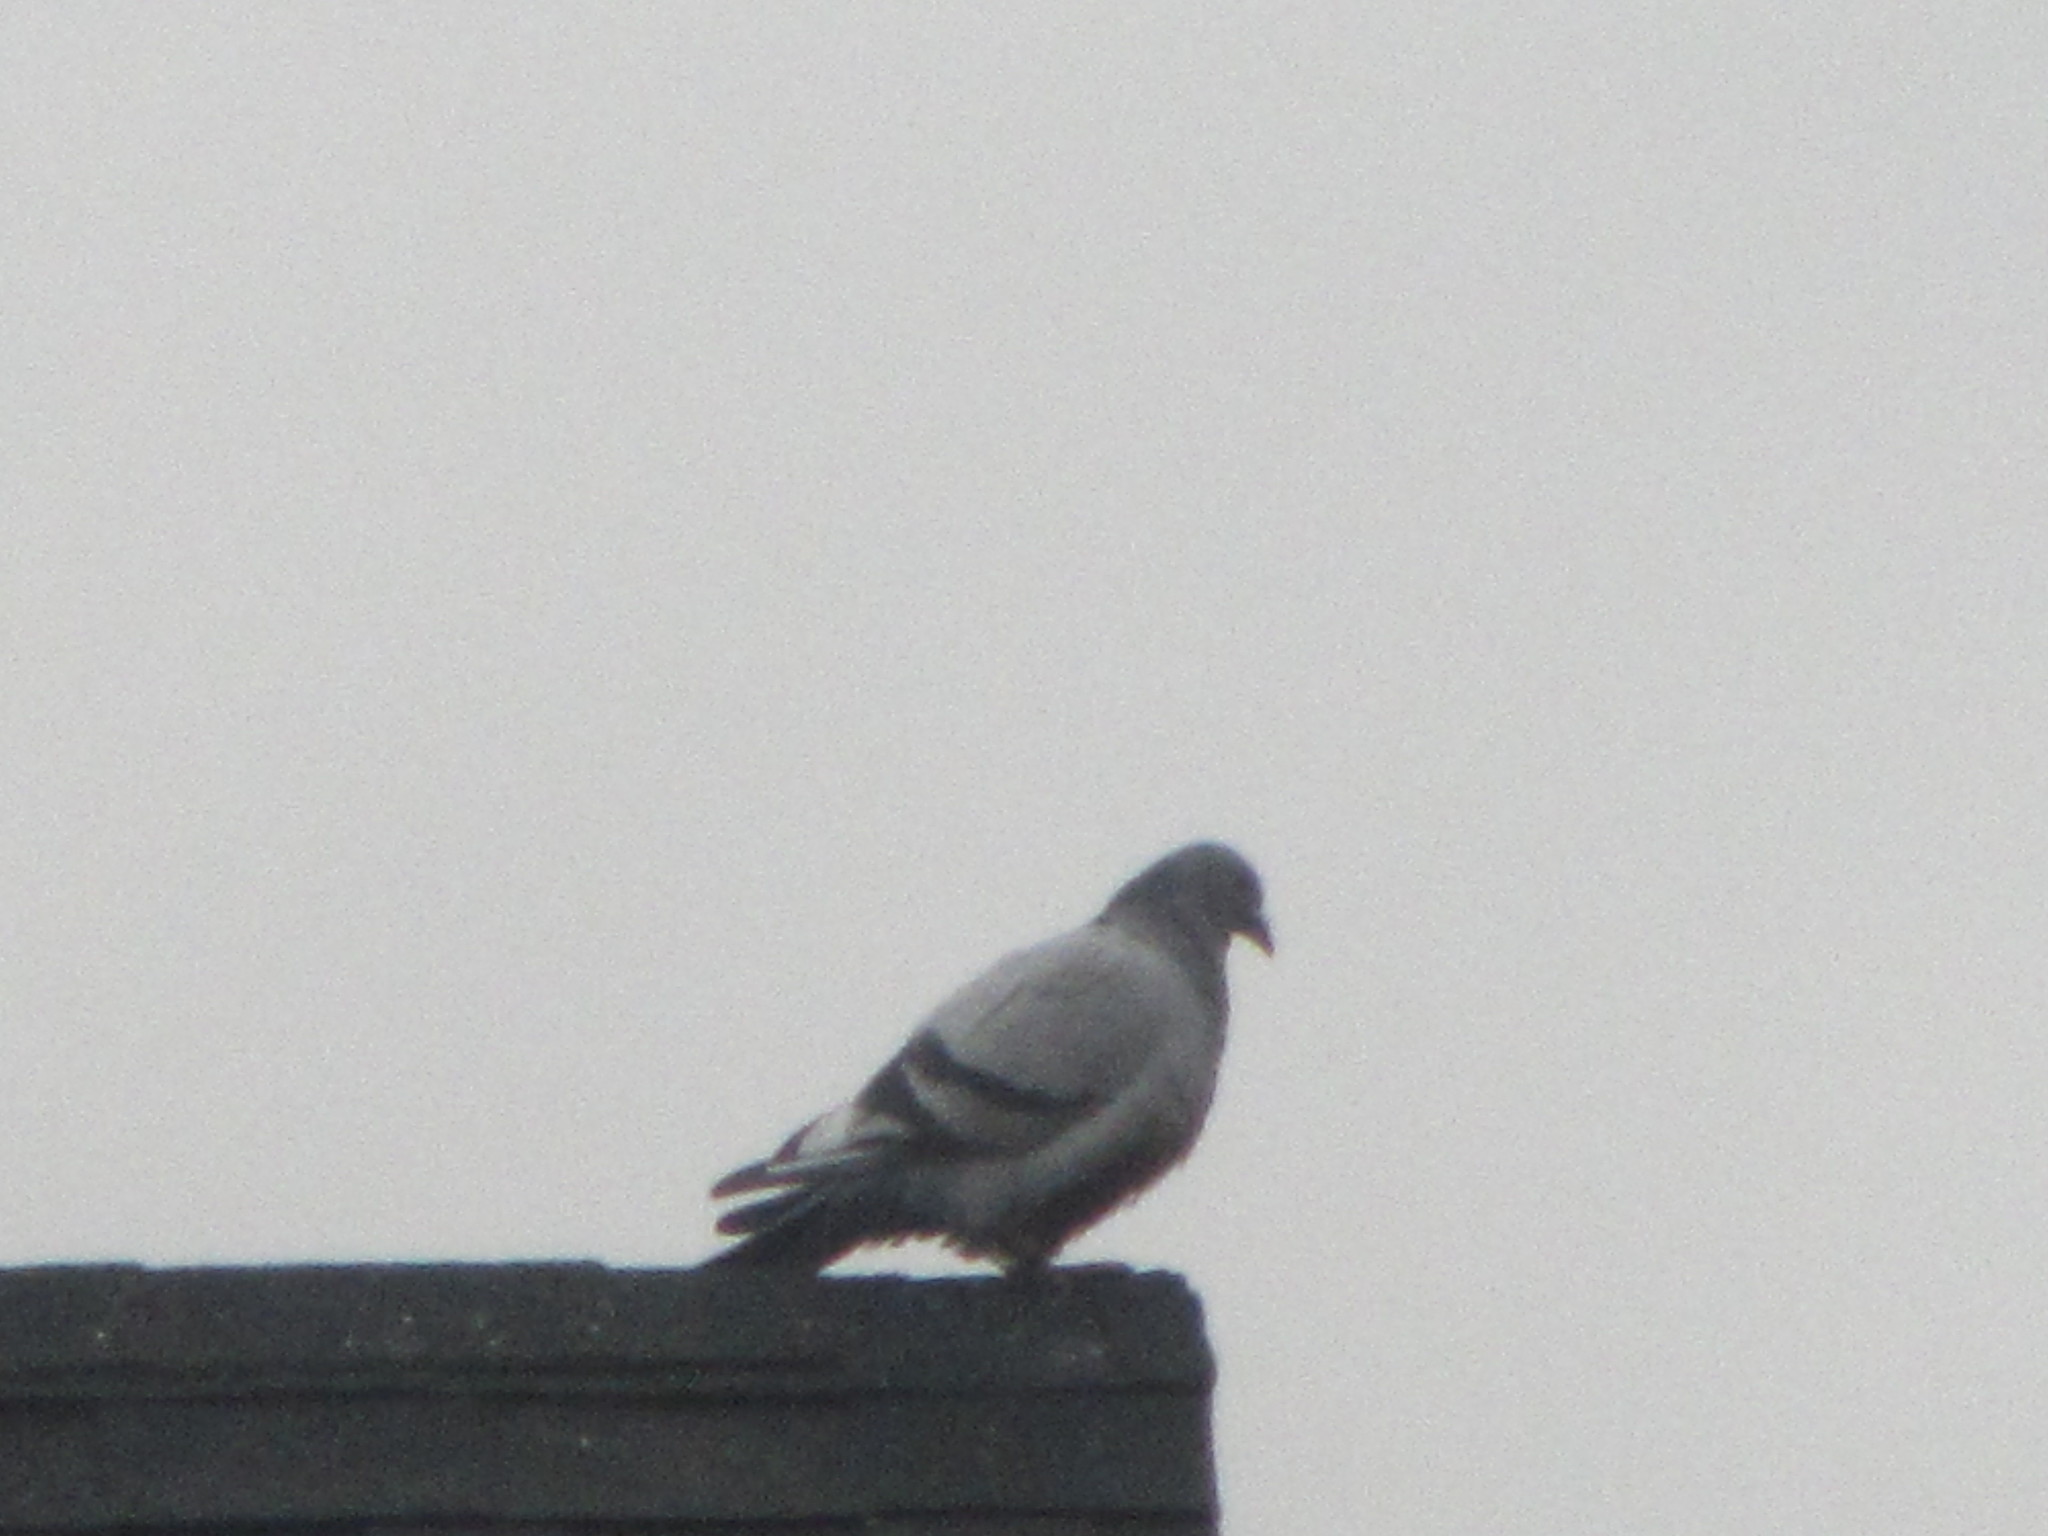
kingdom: Animalia
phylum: Chordata
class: Aves
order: Columbiformes
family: Columbidae
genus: Columba
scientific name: Columba livia
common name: Rock pigeon
